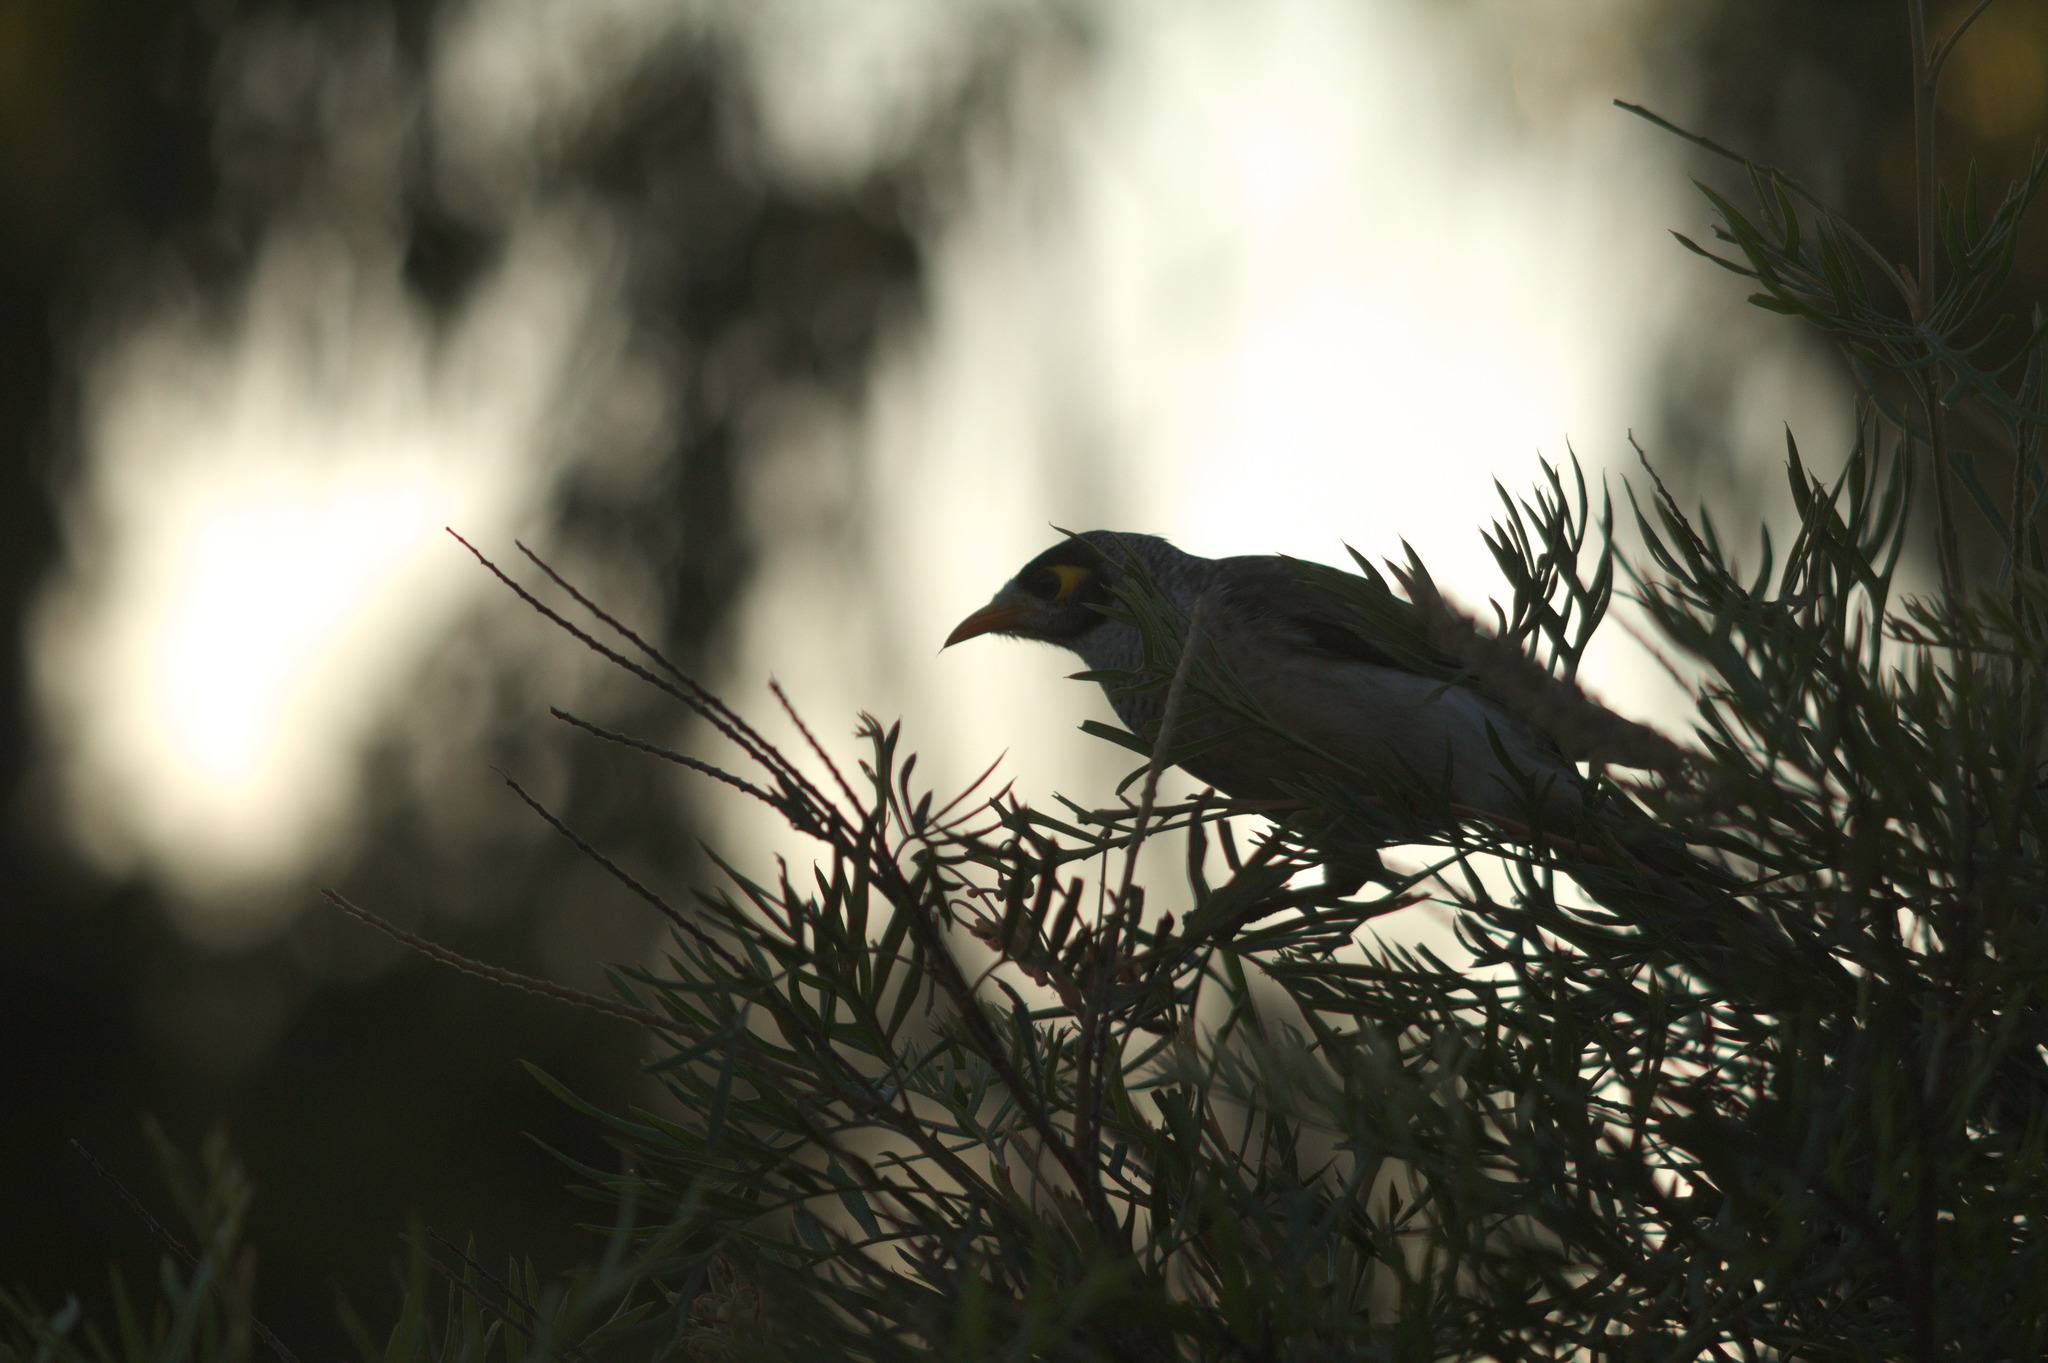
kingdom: Animalia
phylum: Chordata
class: Aves
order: Passeriformes
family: Meliphagidae
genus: Manorina
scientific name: Manorina melanocephala
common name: Noisy miner
